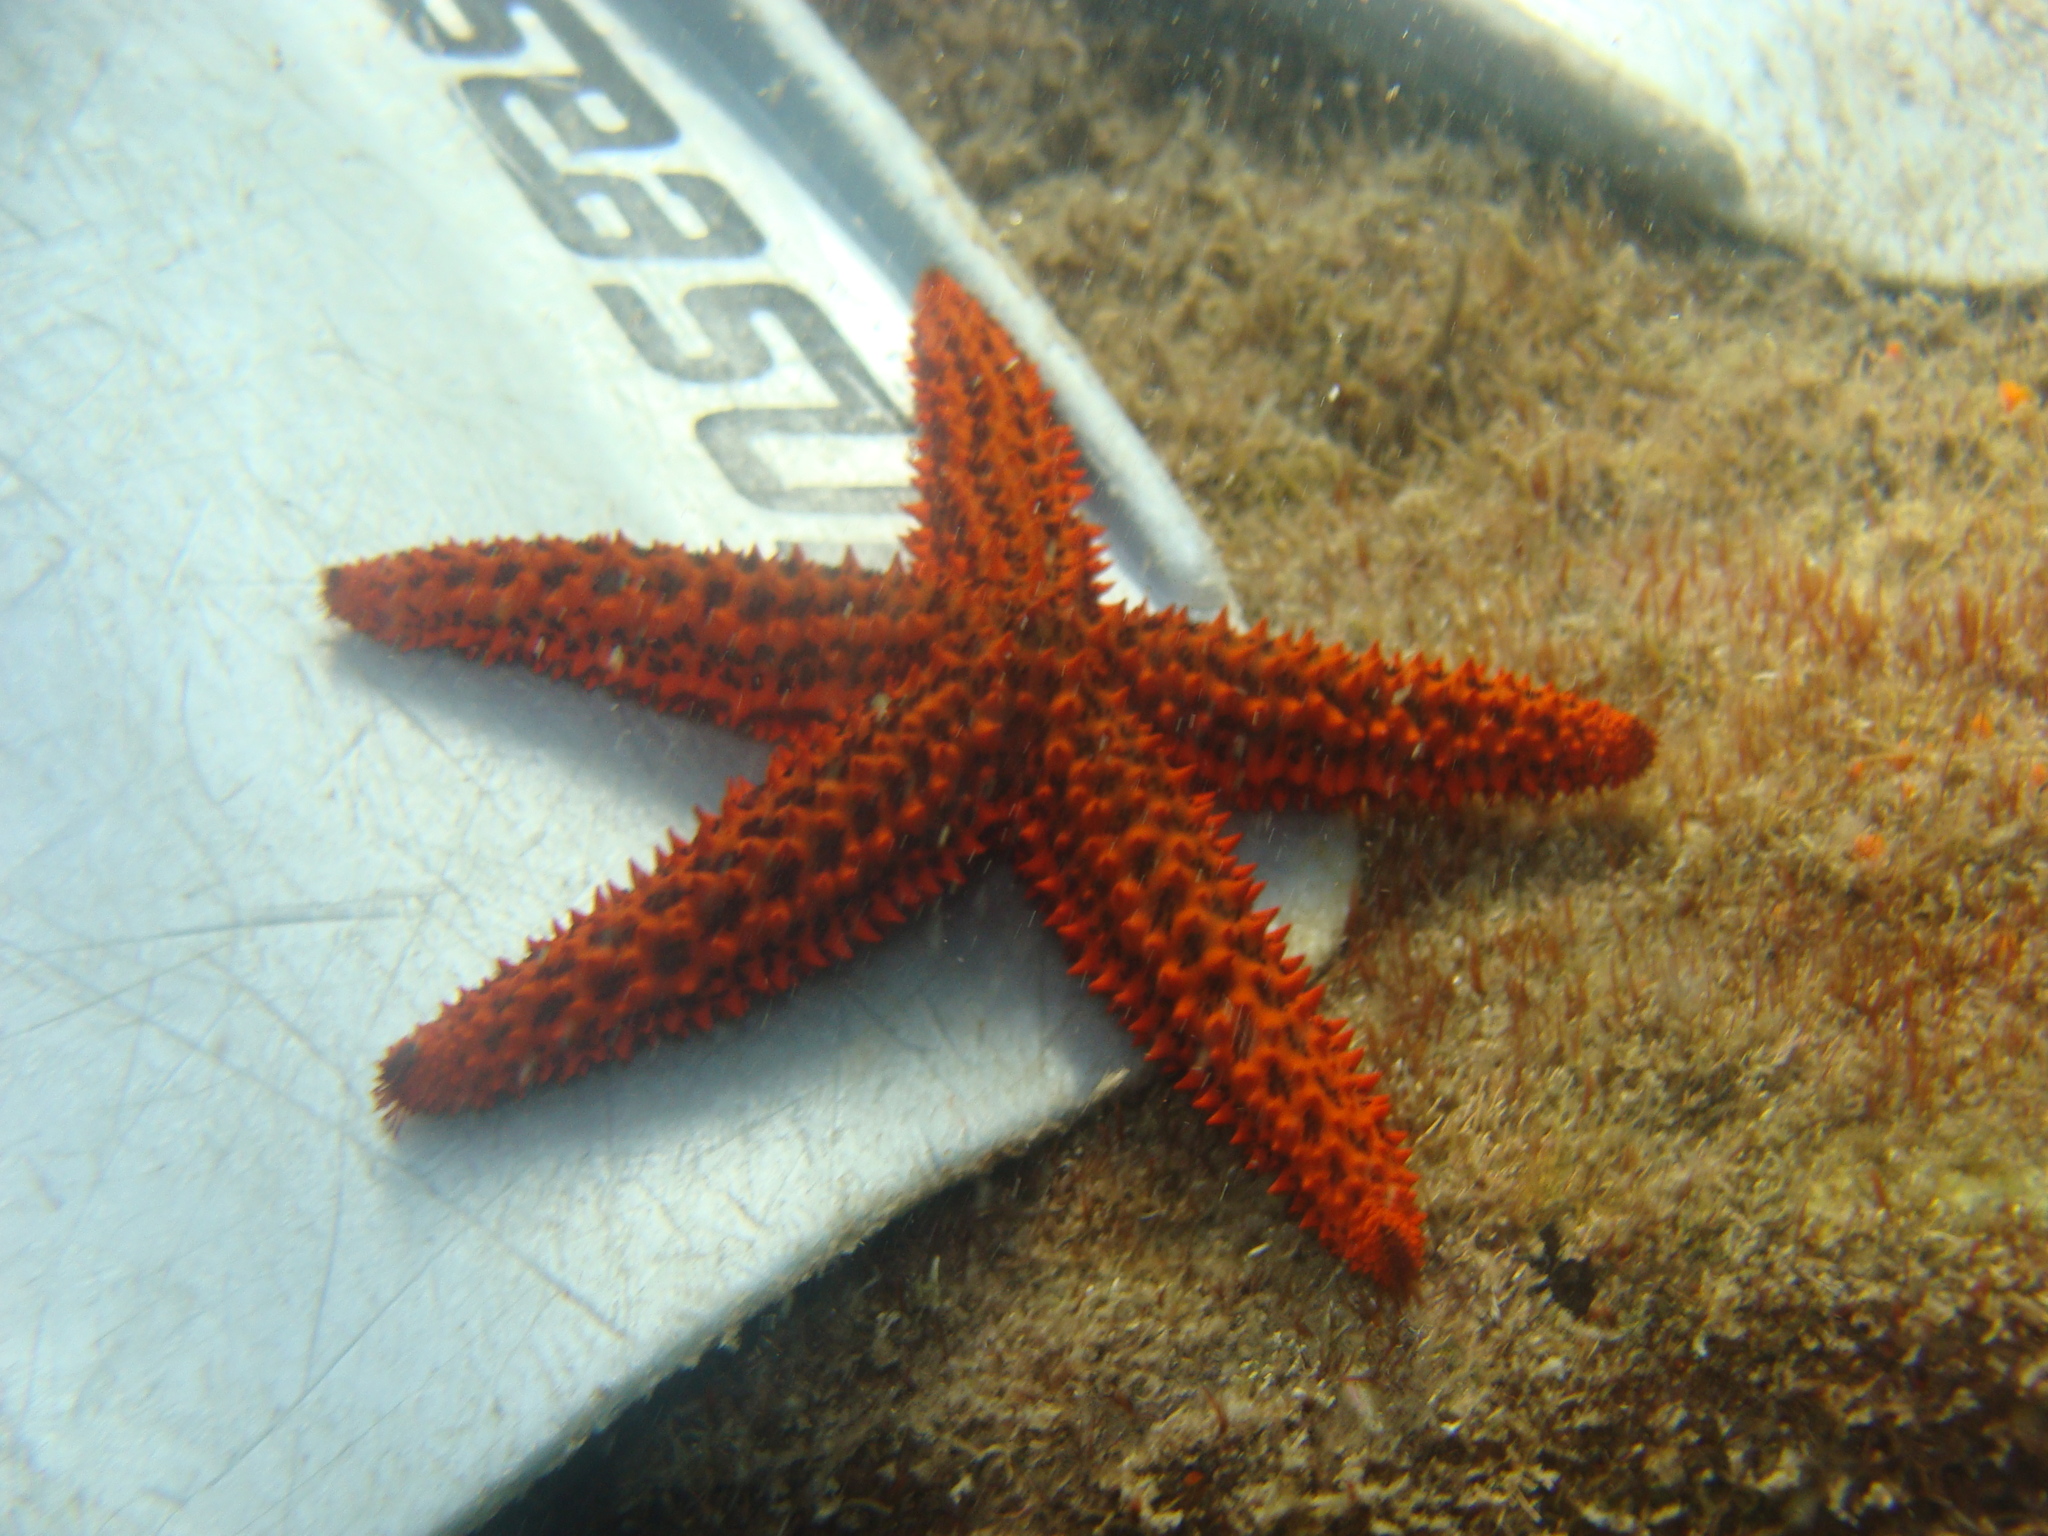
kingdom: Animalia
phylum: Echinodermata
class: Asteroidea
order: Spinulosida
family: Echinasteridae
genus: Echinaster
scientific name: Echinaster brasiliensis
